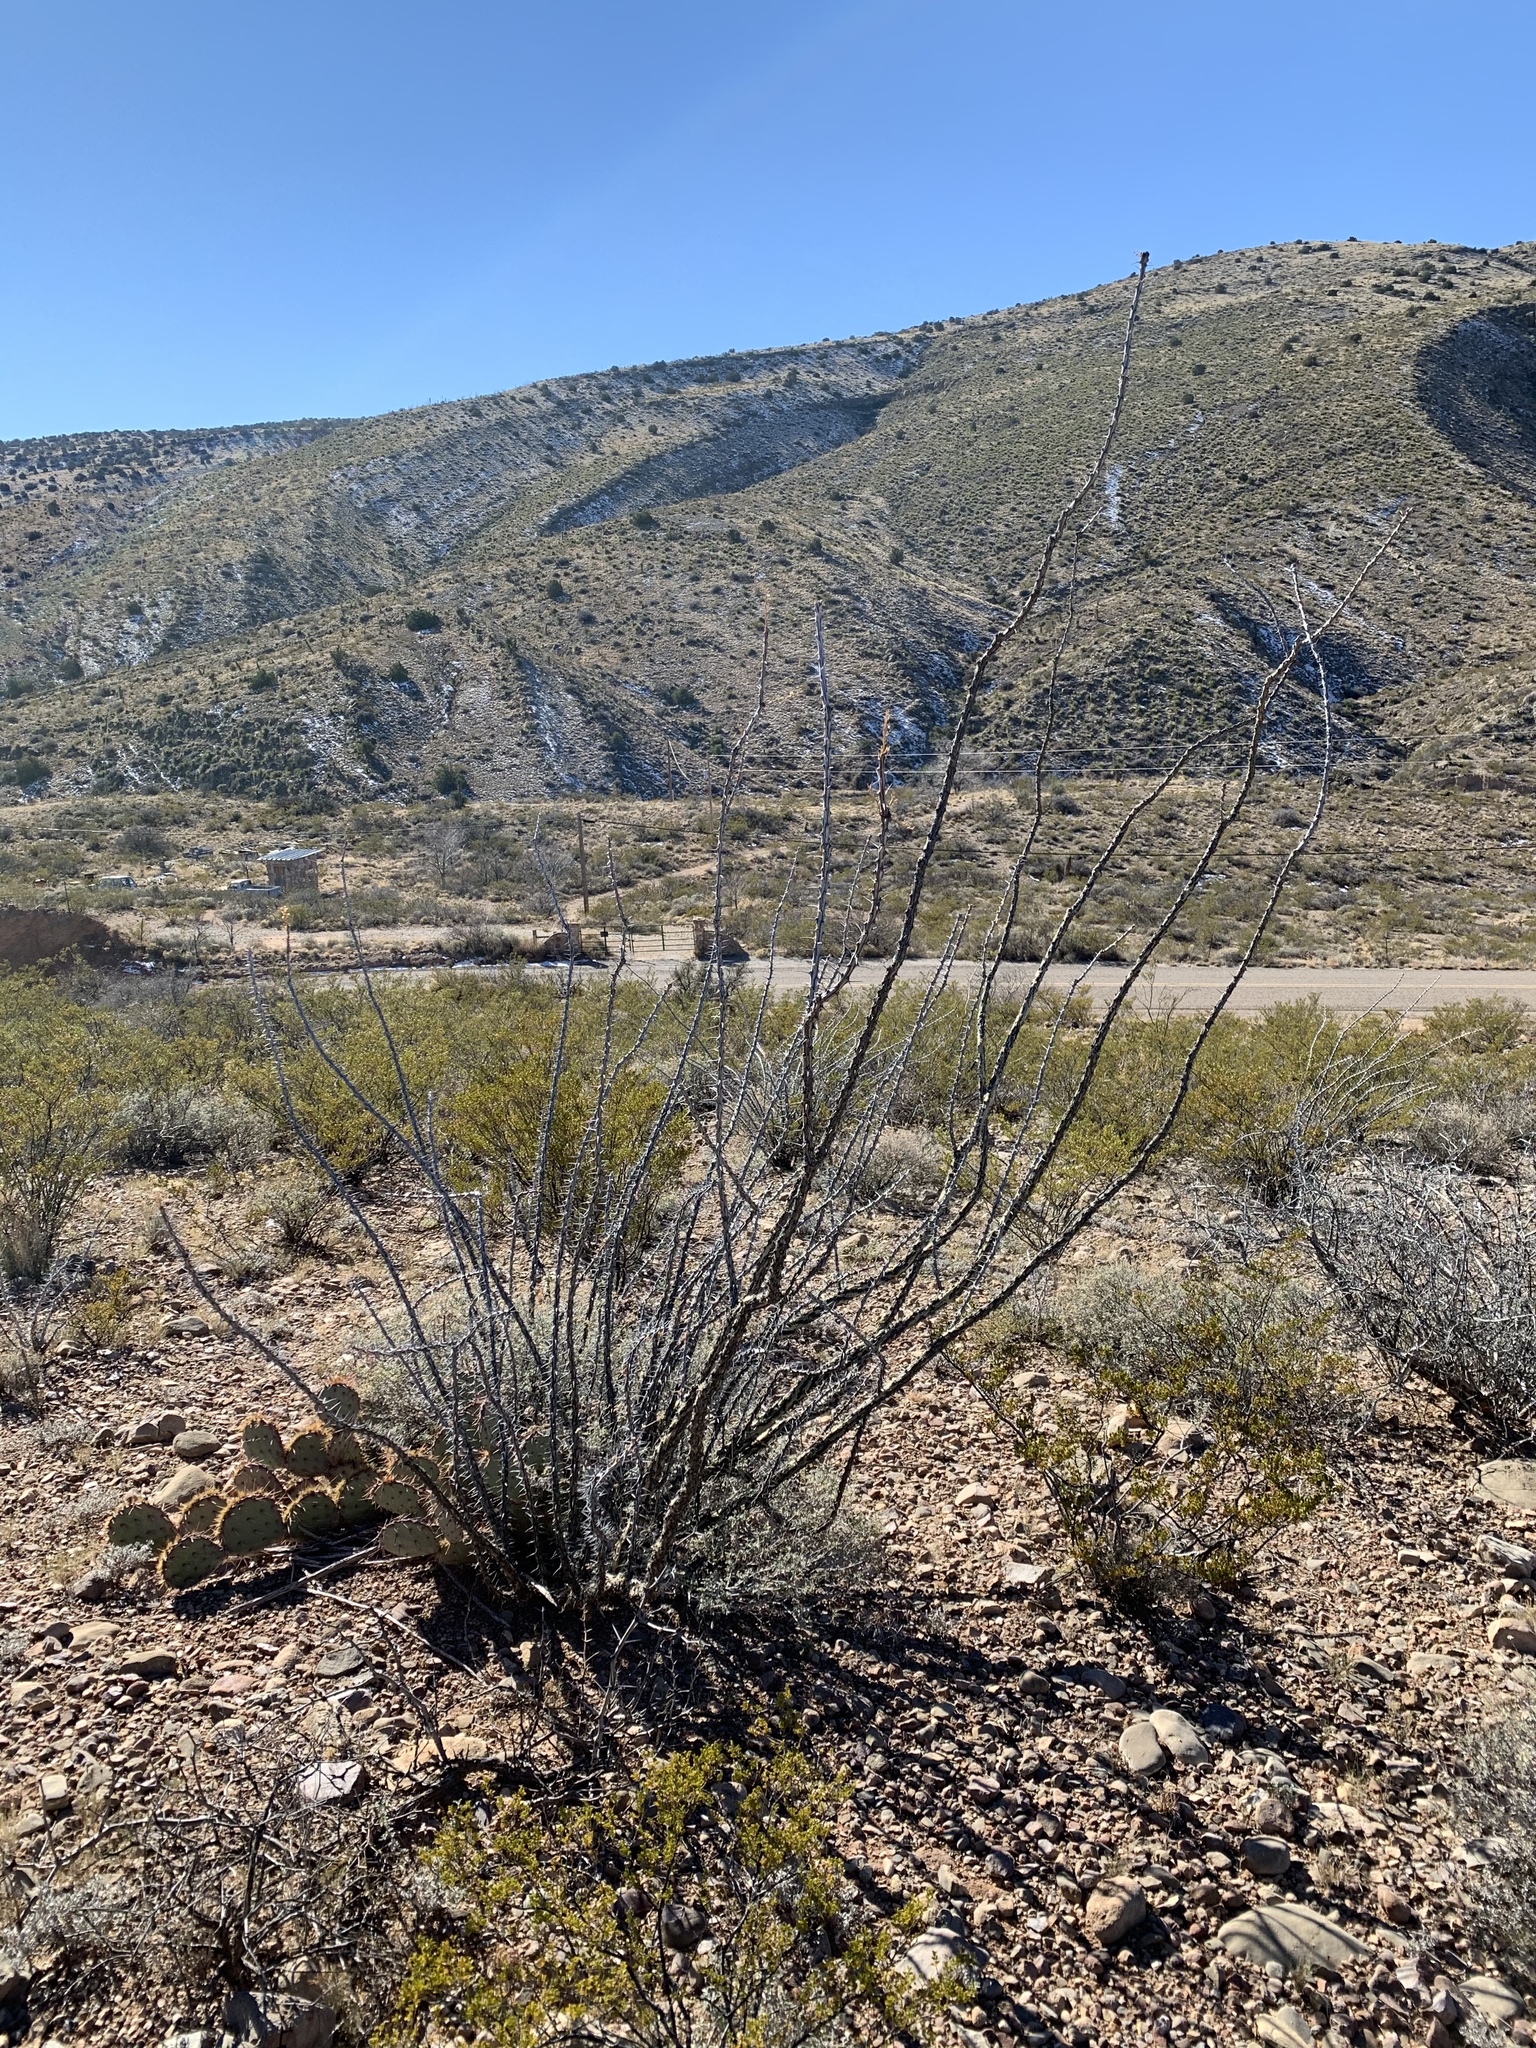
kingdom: Plantae
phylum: Tracheophyta
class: Magnoliopsida
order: Ericales
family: Fouquieriaceae
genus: Fouquieria
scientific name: Fouquieria splendens
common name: Vine-cactus
